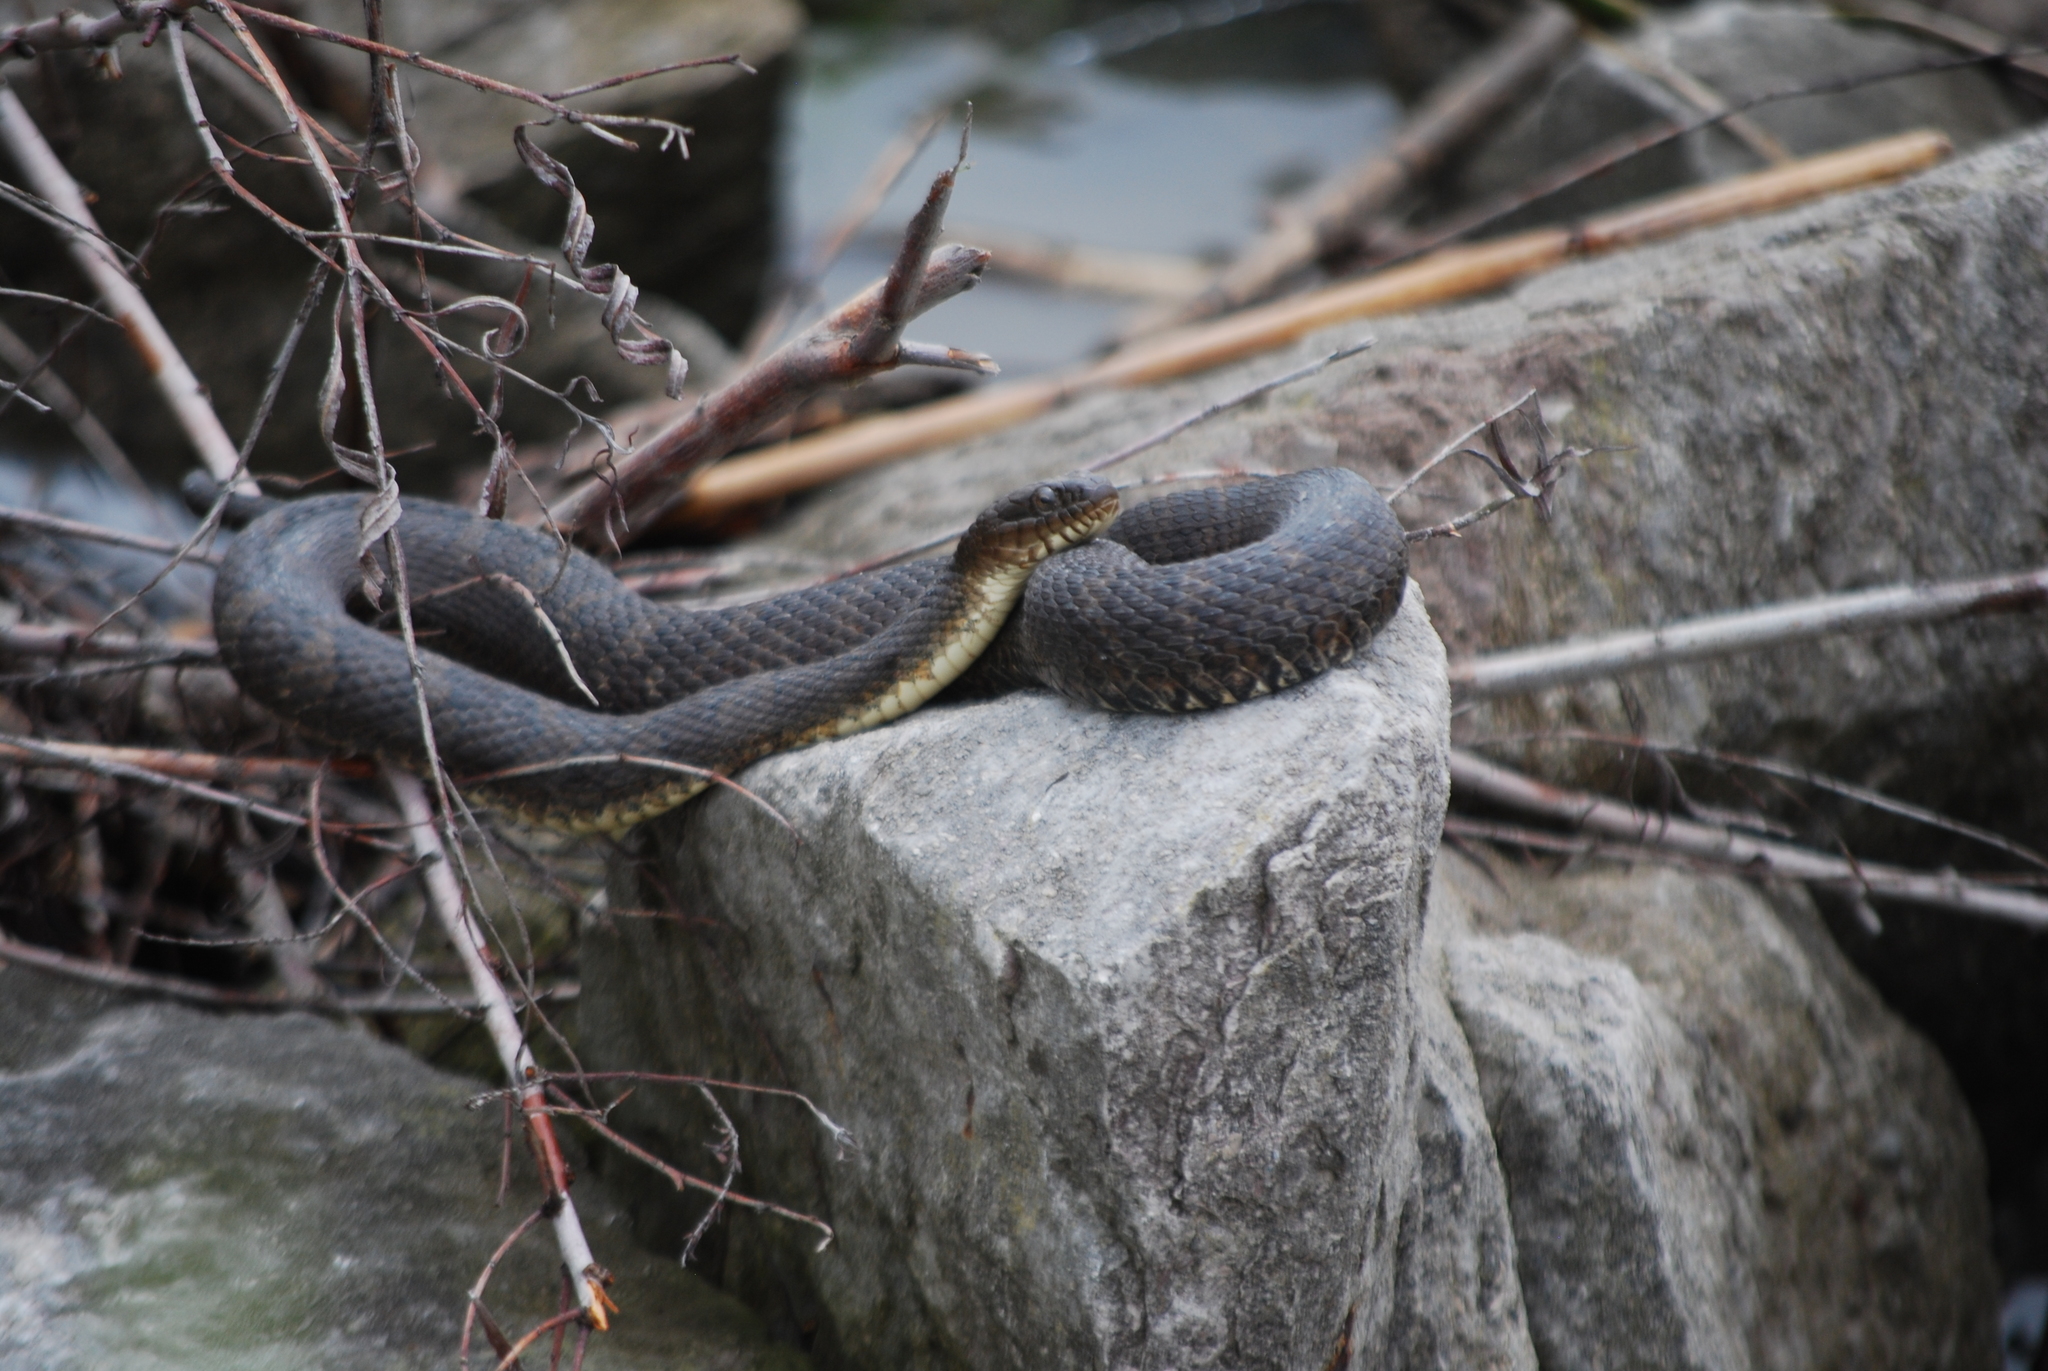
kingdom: Animalia
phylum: Chordata
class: Squamata
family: Colubridae
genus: Nerodia
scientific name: Nerodia sipedon
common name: Northern water snake
